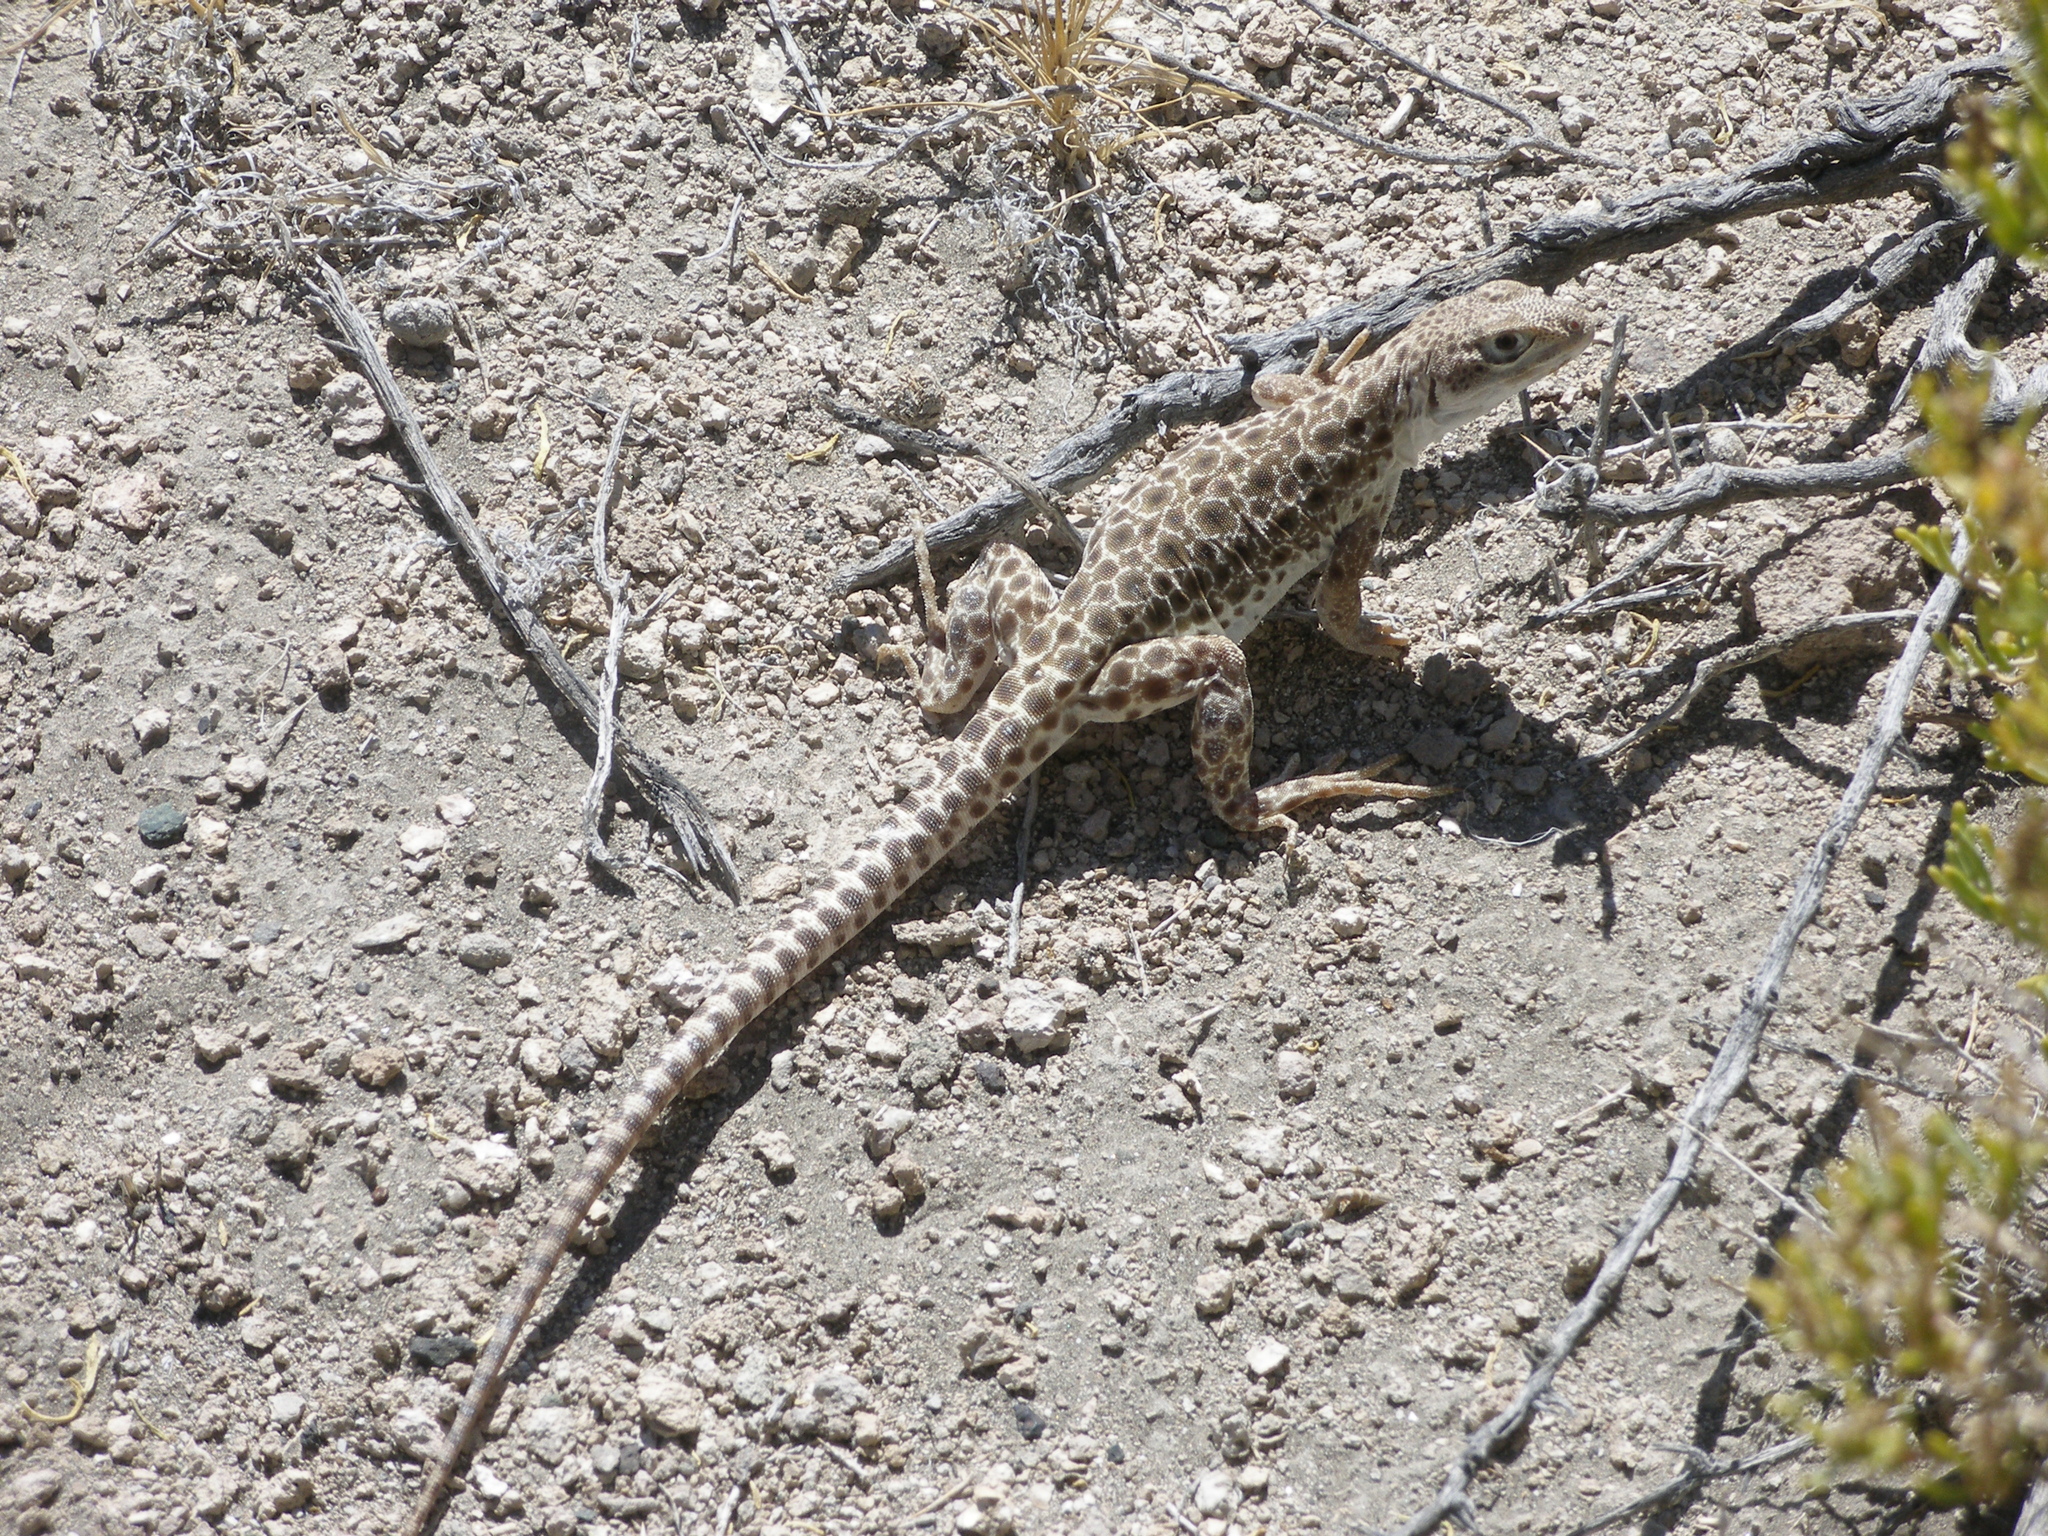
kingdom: Animalia
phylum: Chordata
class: Squamata
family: Crotaphytidae
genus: Gambelia
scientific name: Gambelia wislizenii
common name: Longnose leopard lizard
